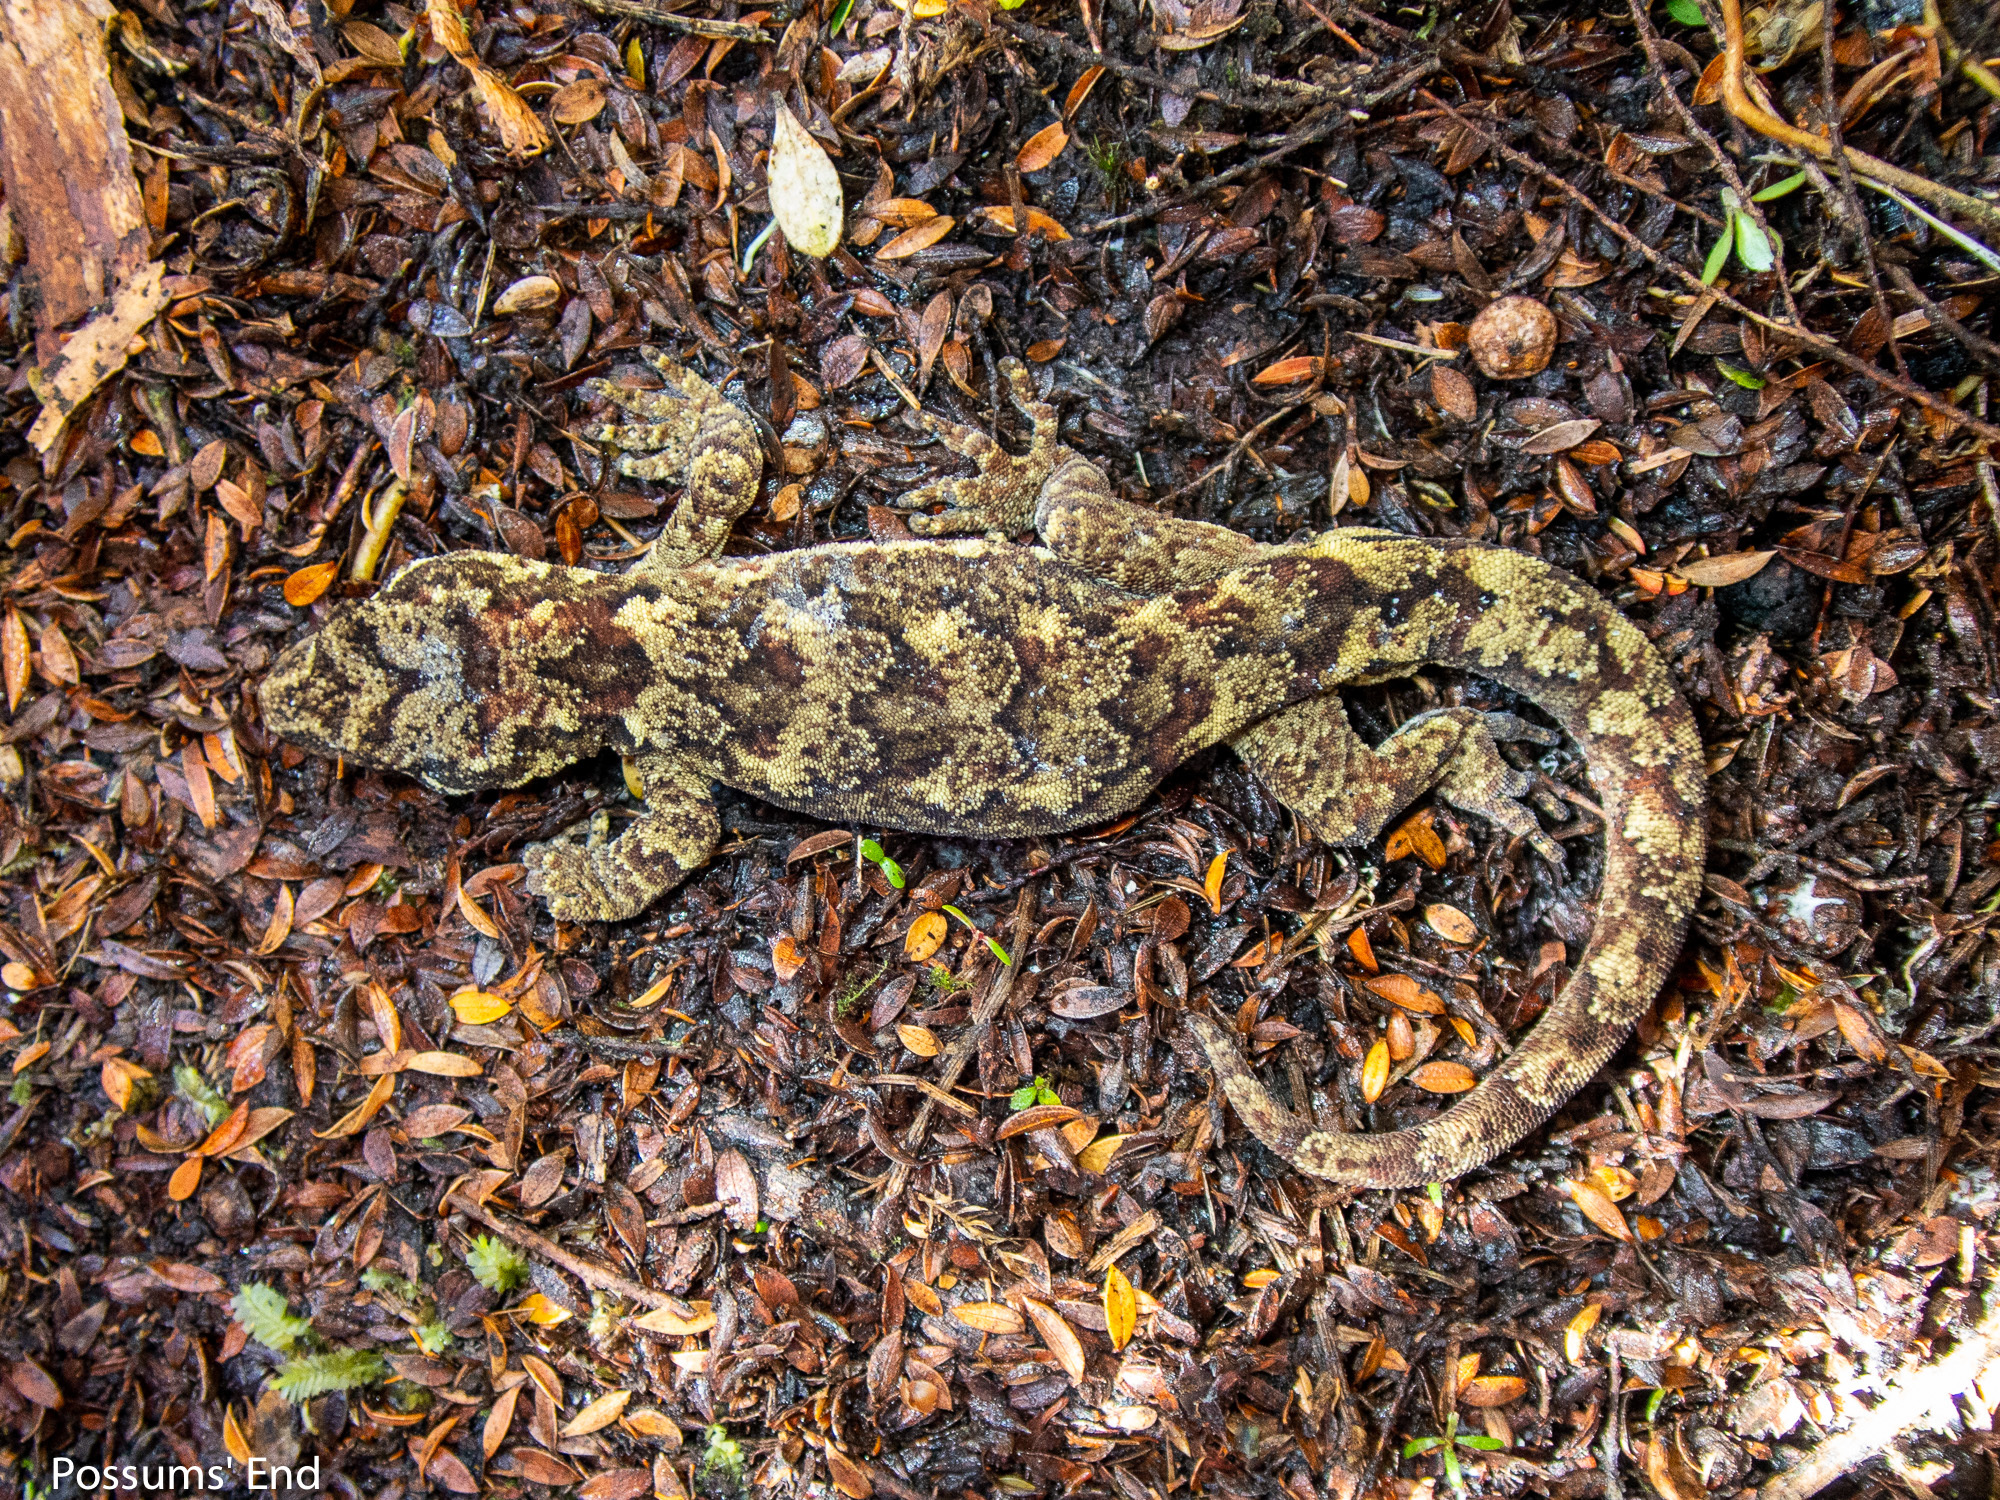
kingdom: Animalia
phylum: Chordata
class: Squamata
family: Diplodactylidae
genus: Mokopirirakau
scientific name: Mokopirirakau
